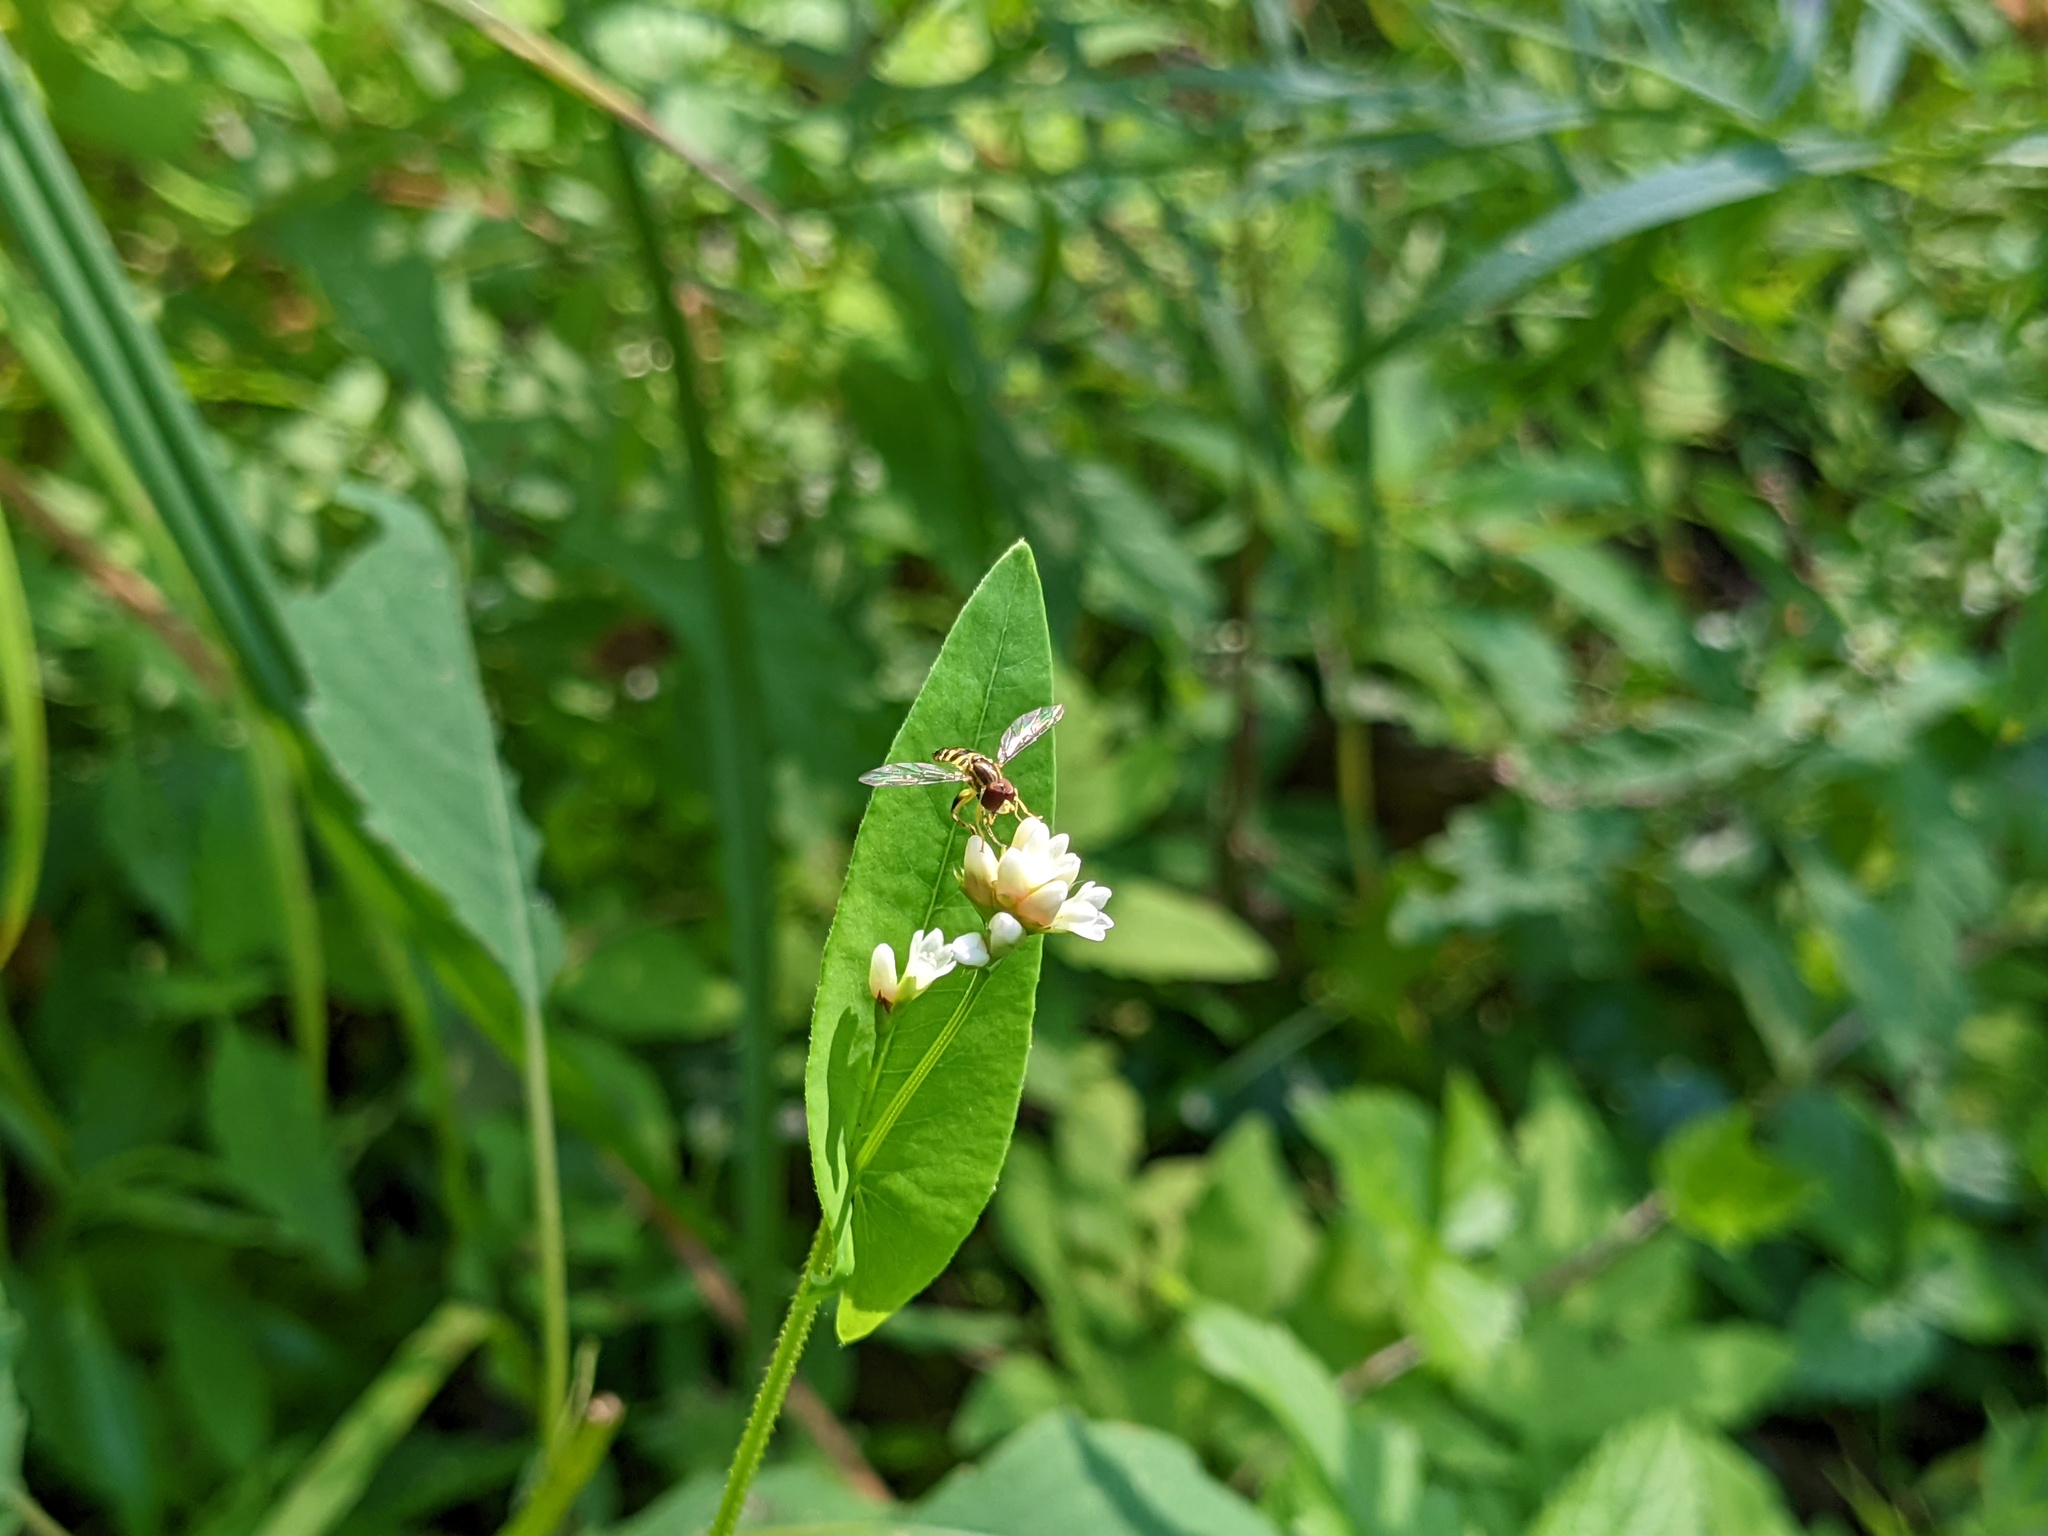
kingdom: Animalia
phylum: Arthropoda
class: Insecta
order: Diptera
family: Syrphidae
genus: Toxomerus
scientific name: Toxomerus geminatus
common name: Eastern calligrapher
